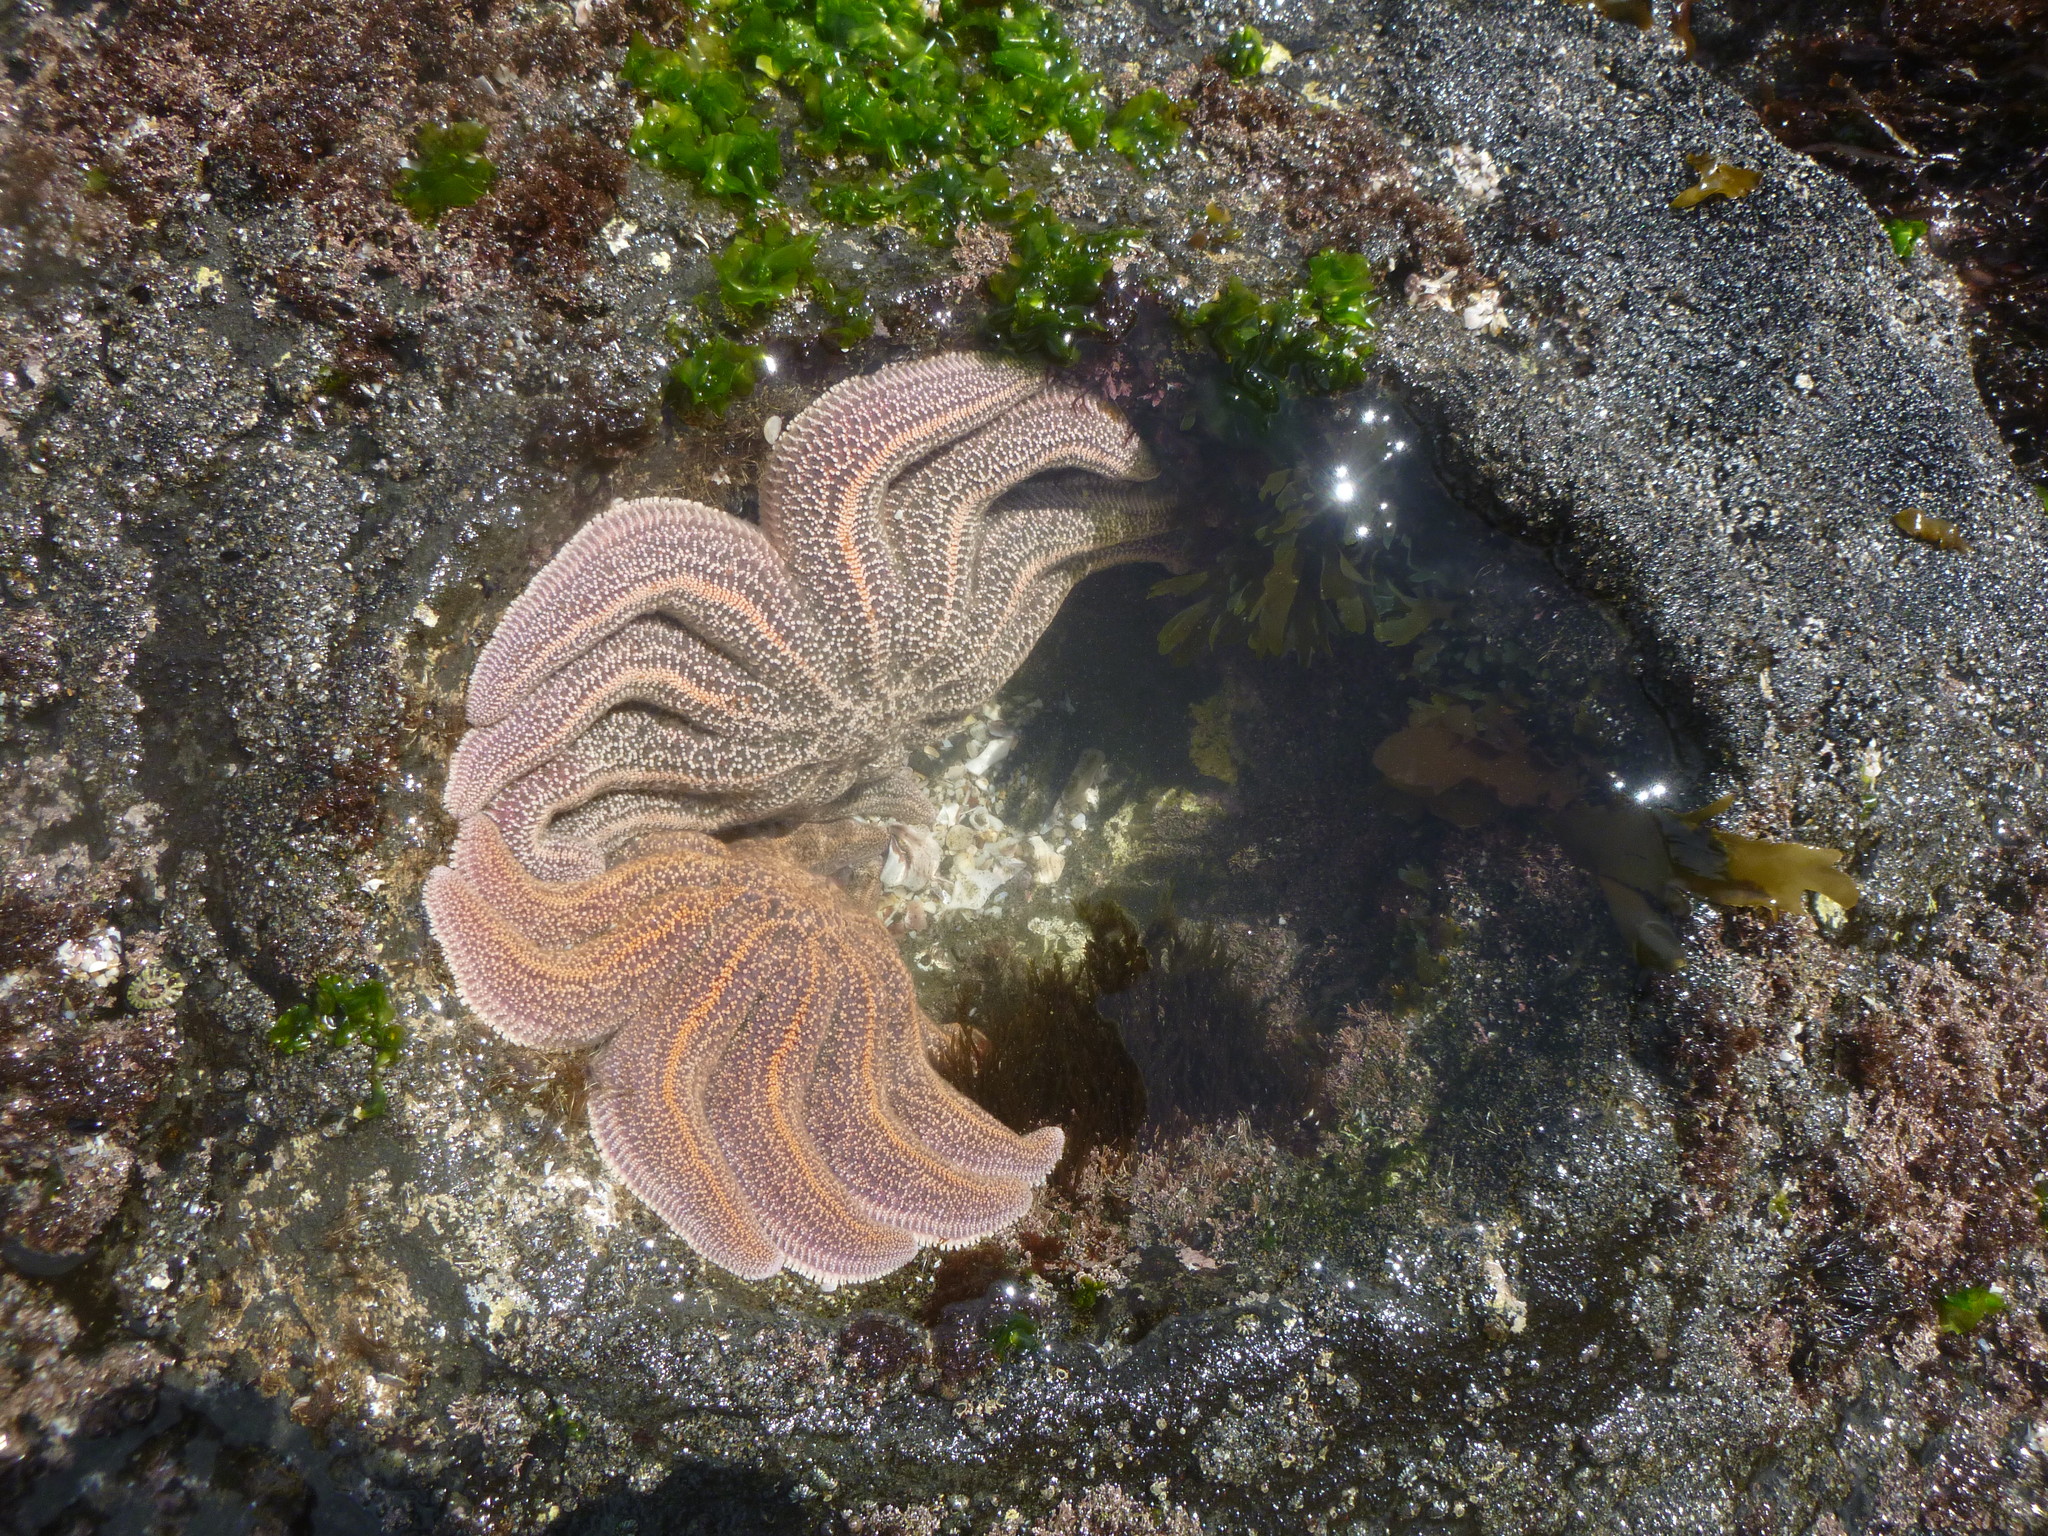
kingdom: Animalia
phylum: Echinodermata
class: Asteroidea
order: Forcipulatida
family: Stichasteridae
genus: Stichaster
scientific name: Stichaster australis
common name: Reef starfish
